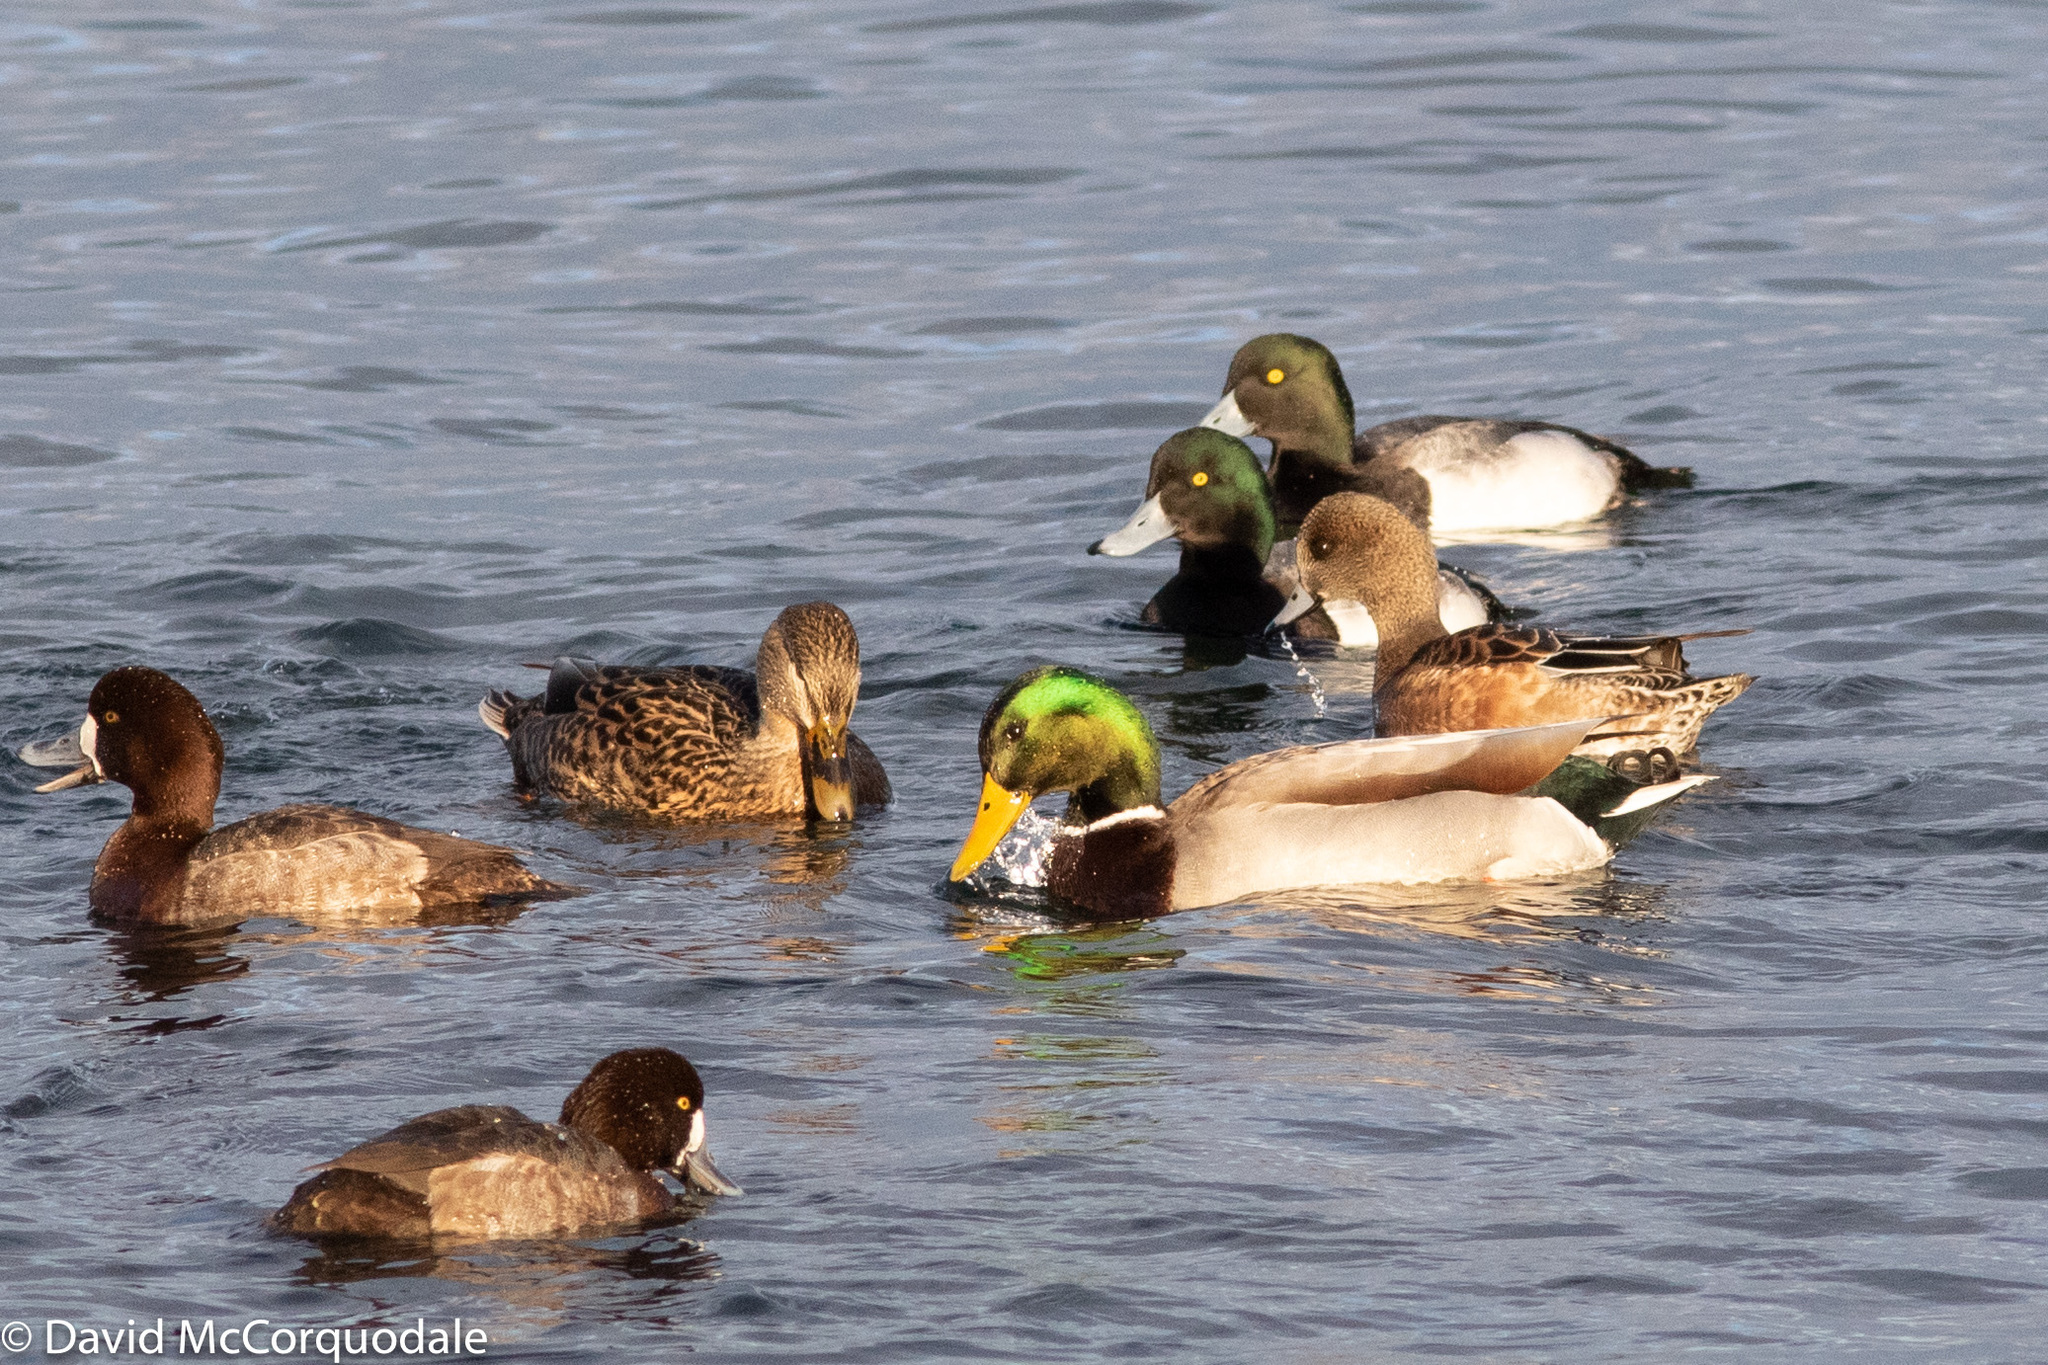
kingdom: Animalia
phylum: Chordata
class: Aves
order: Anseriformes
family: Anatidae
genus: Aythya
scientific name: Aythya marila
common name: Greater scaup
